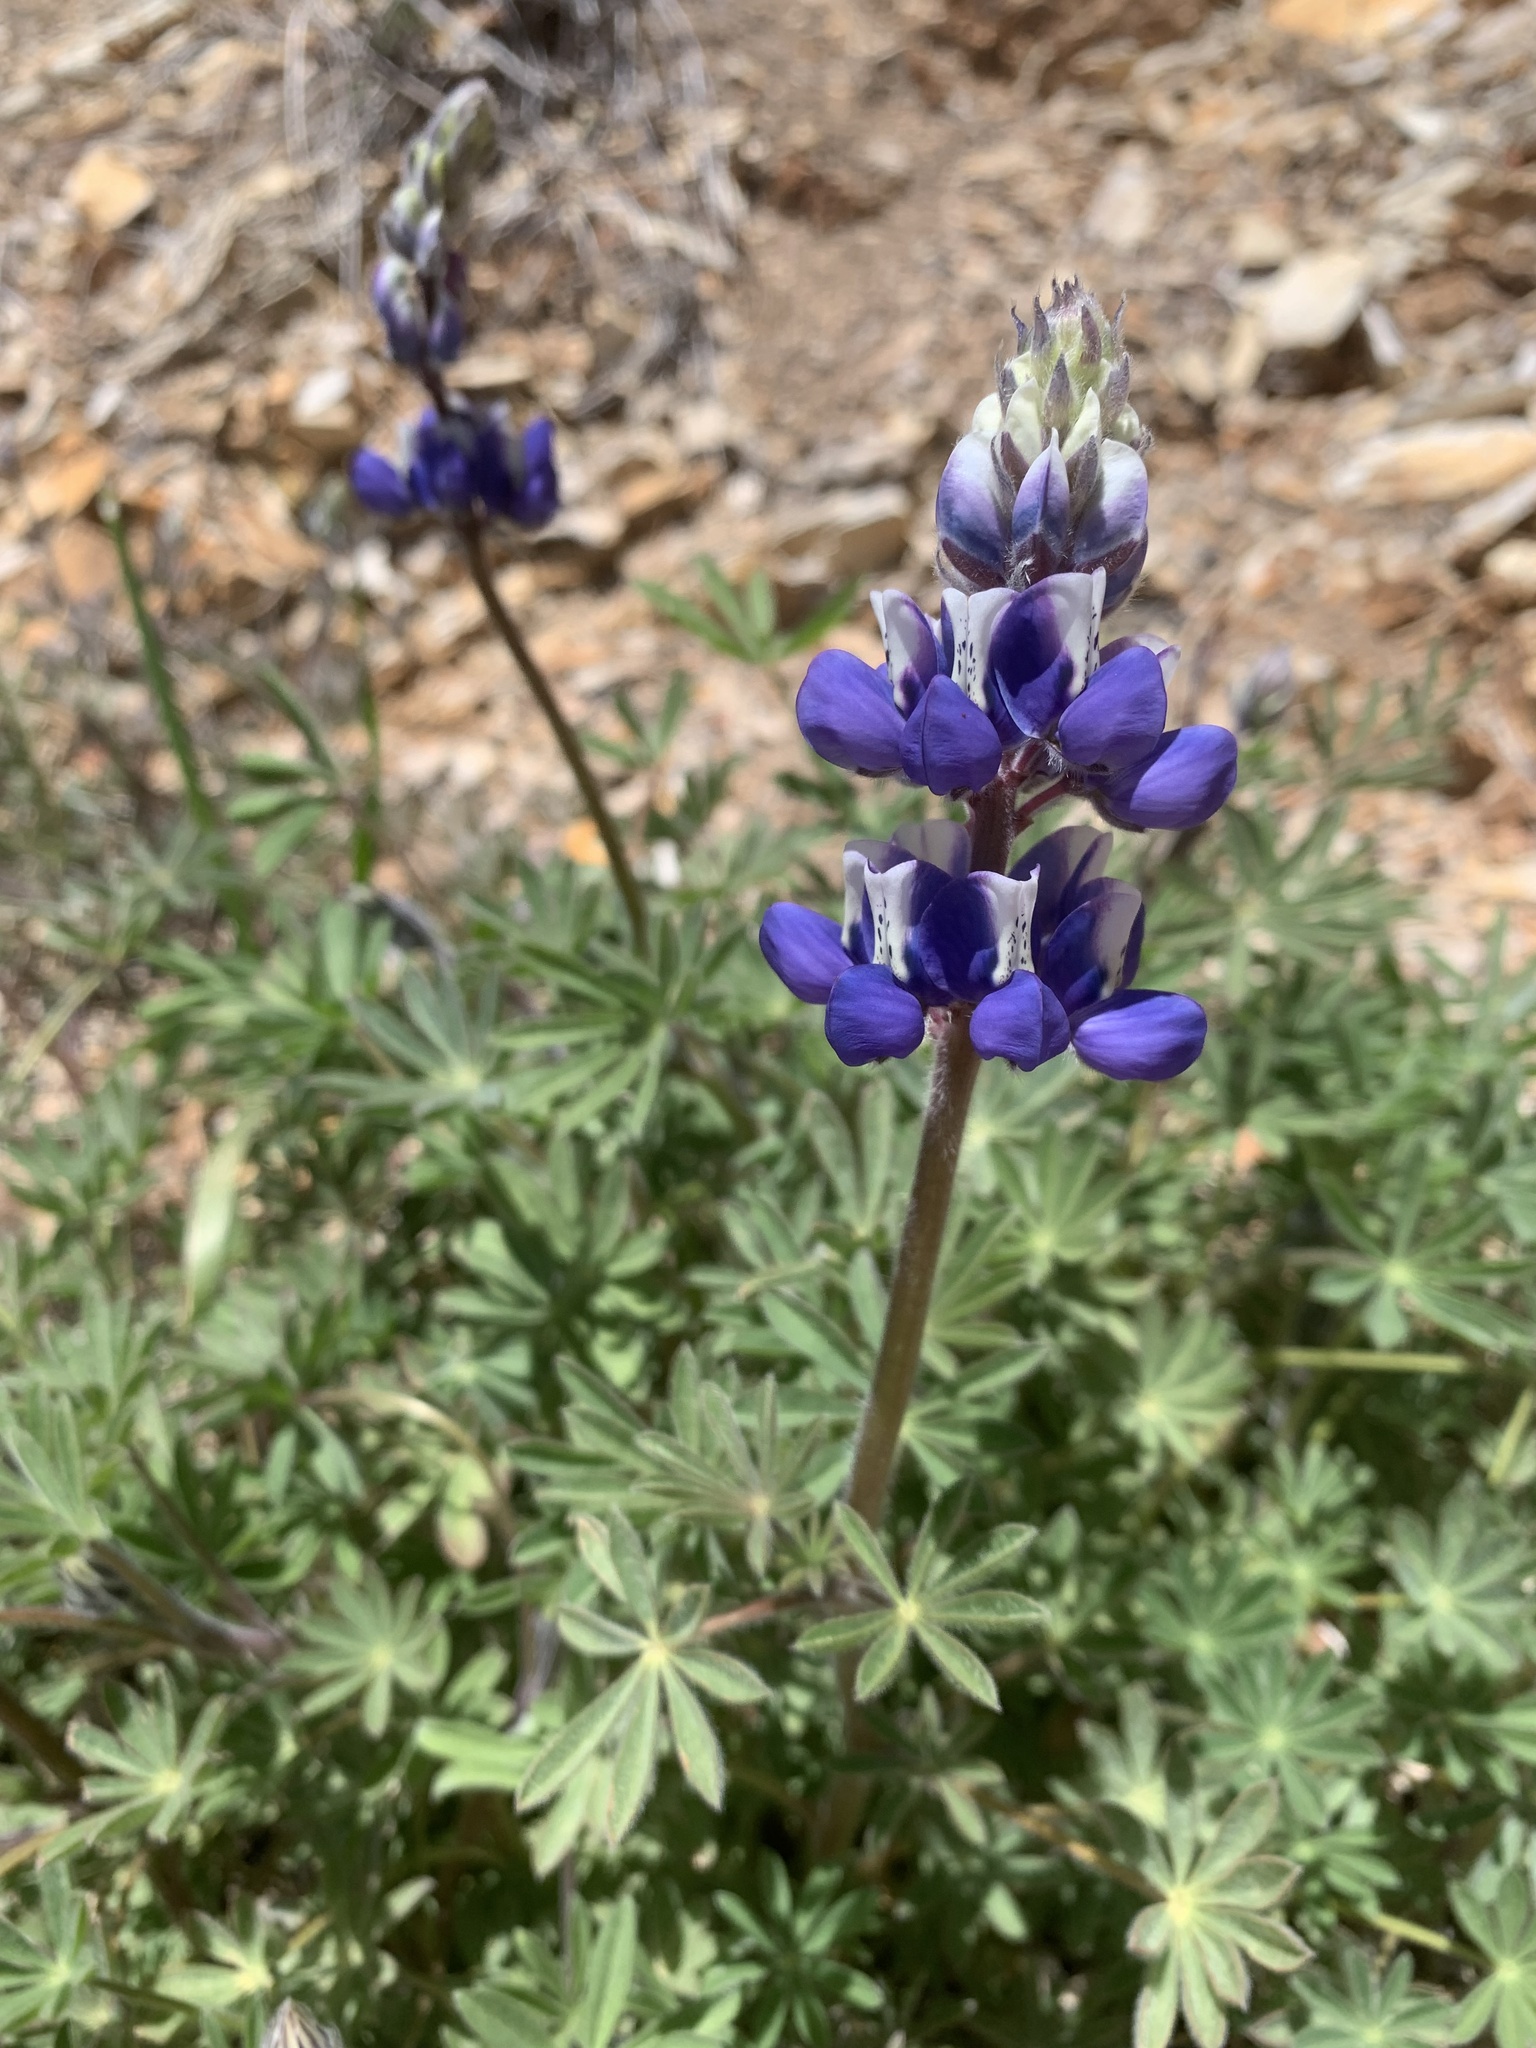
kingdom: Plantae
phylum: Tracheophyta
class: Magnoliopsida
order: Fabales
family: Fabaceae
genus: Lupinus
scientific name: Lupinus nanus
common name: Orean blue lupin
